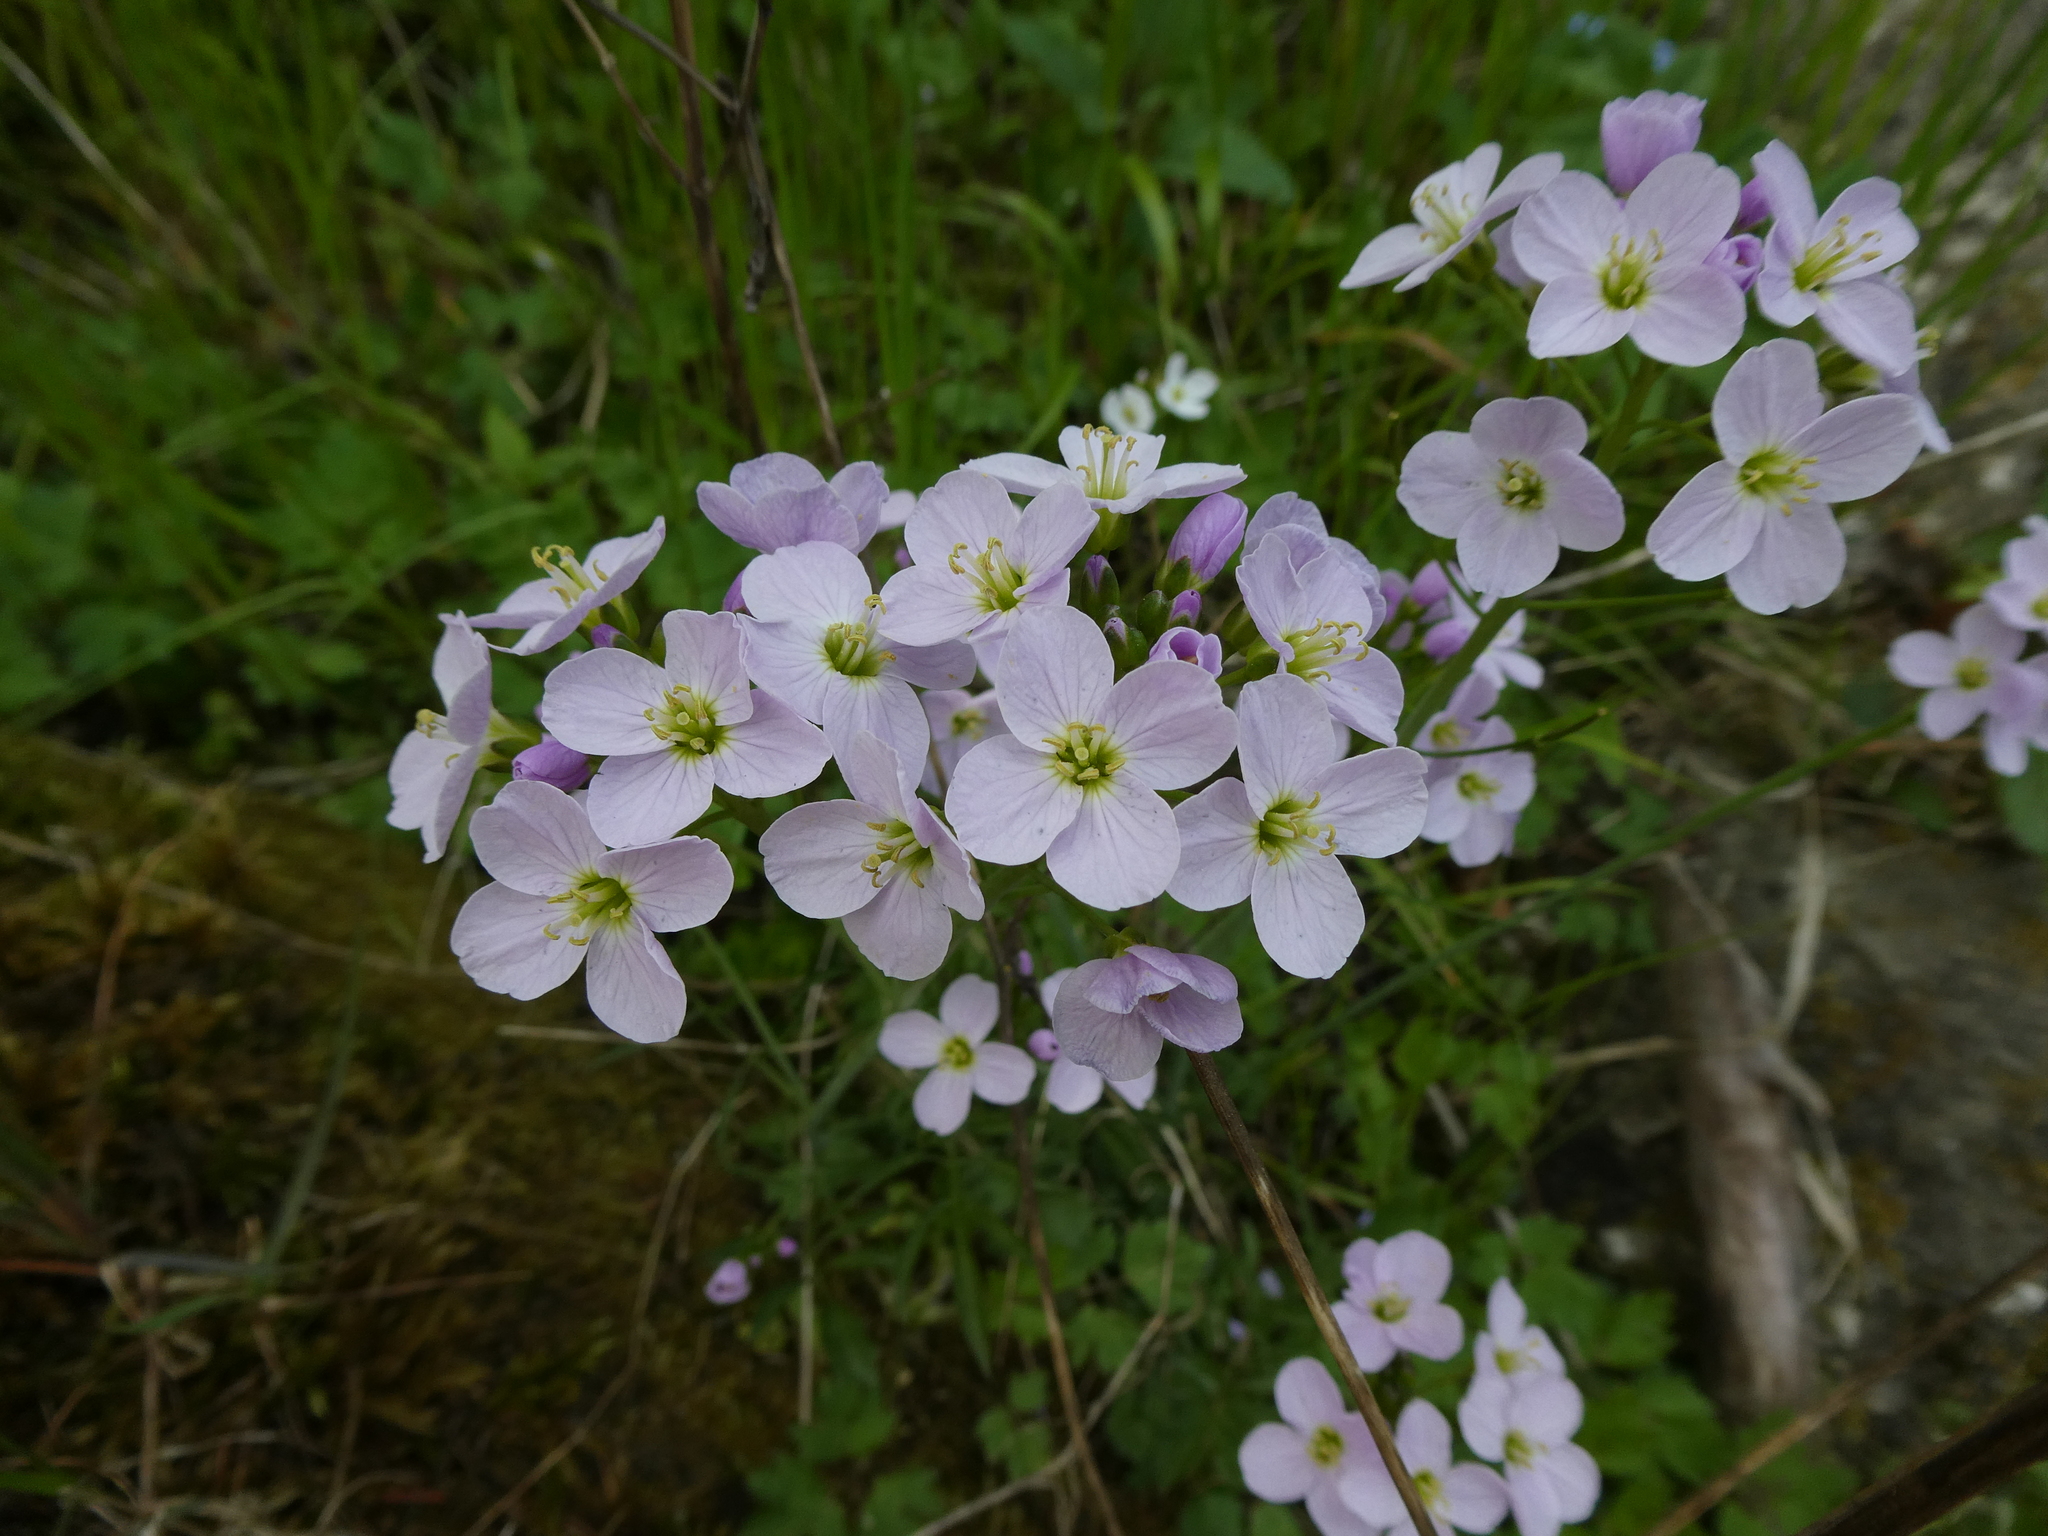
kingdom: Plantae
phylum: Tracheophyta
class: Magnoliopsida
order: Brassicales
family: Brassicaceae
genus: Cardamine
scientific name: Cardamine pratensis
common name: Cuckoo flower
